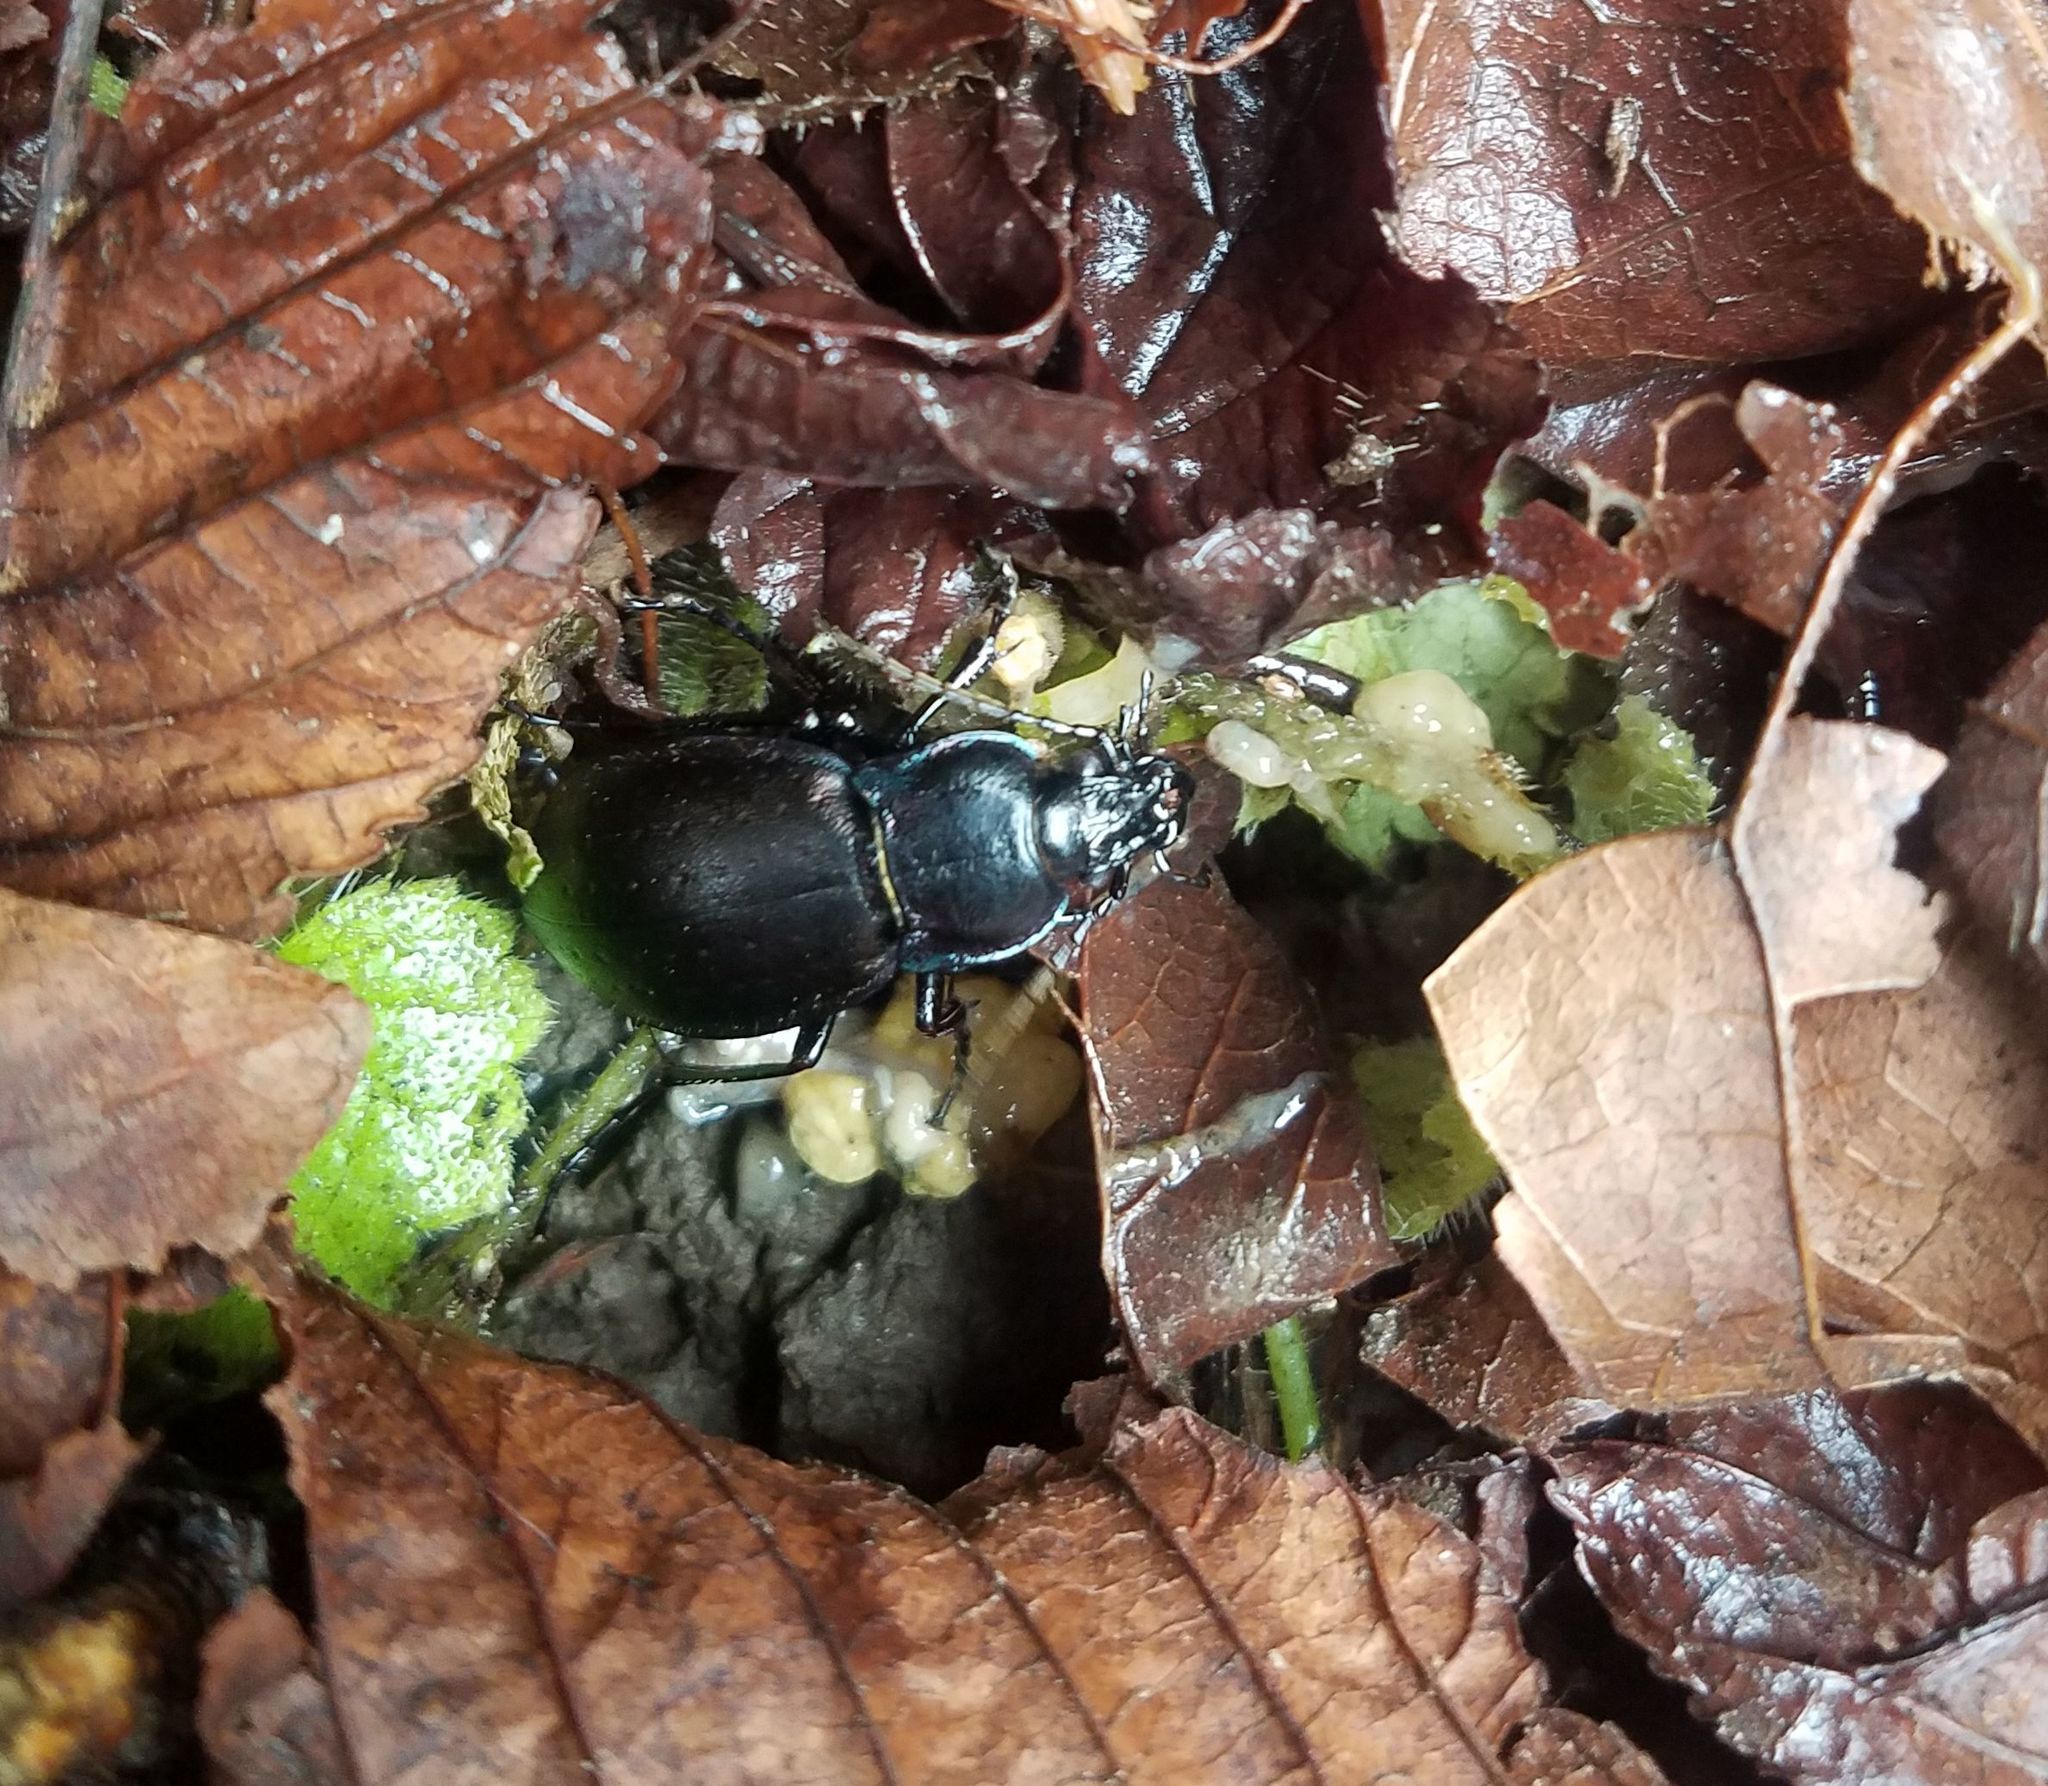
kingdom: Animalia
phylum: Arthropoda
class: Insecta
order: Coleoptera
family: Carabidae
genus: Carabus
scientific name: Carabus nemoralis
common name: European ground beetle
